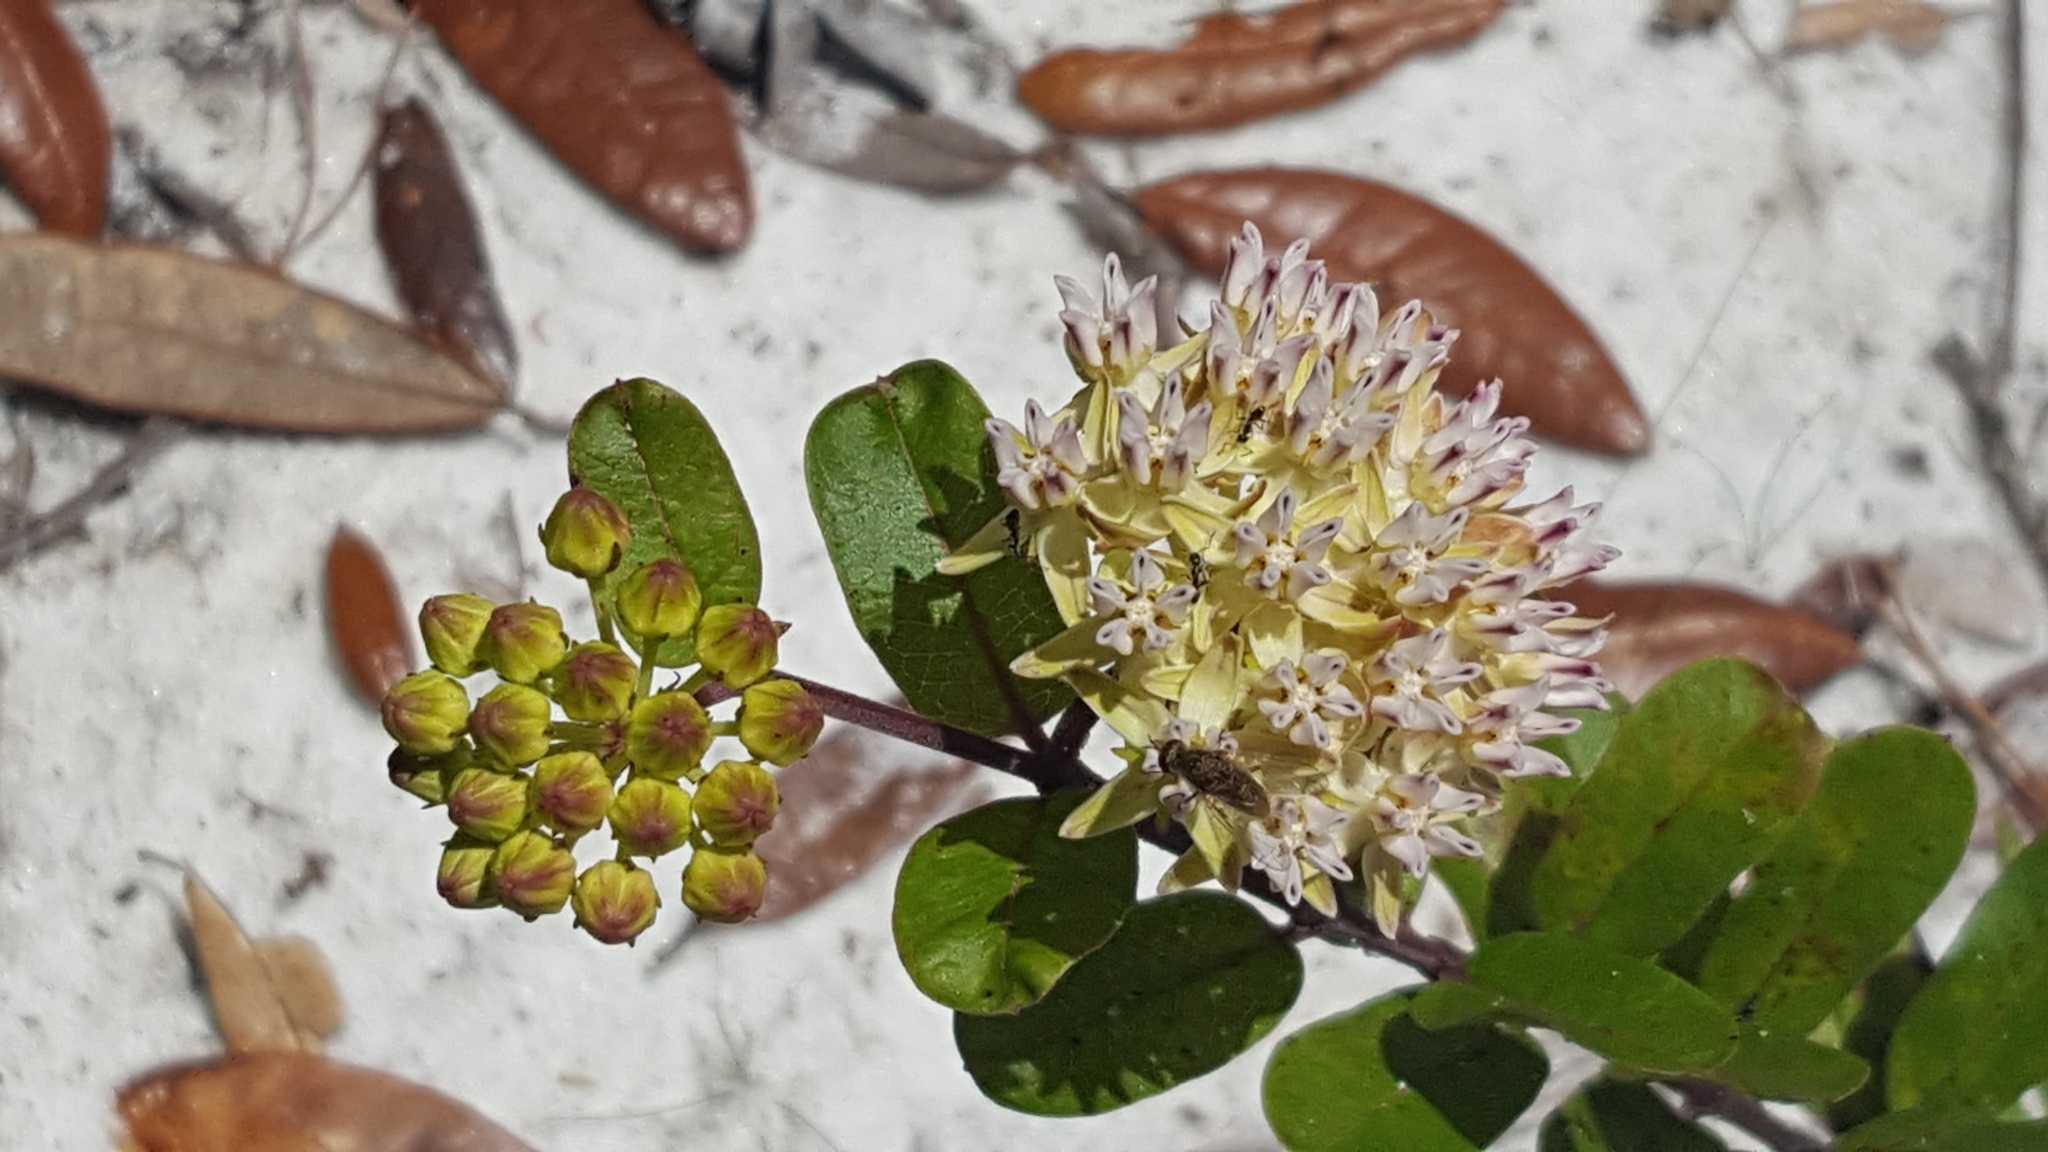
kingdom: Plantae
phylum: Tracheophyta
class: Magnoliopsida
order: Gentianales
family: Apocynaceae
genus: Asclepias
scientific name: Asclepias curtissii
